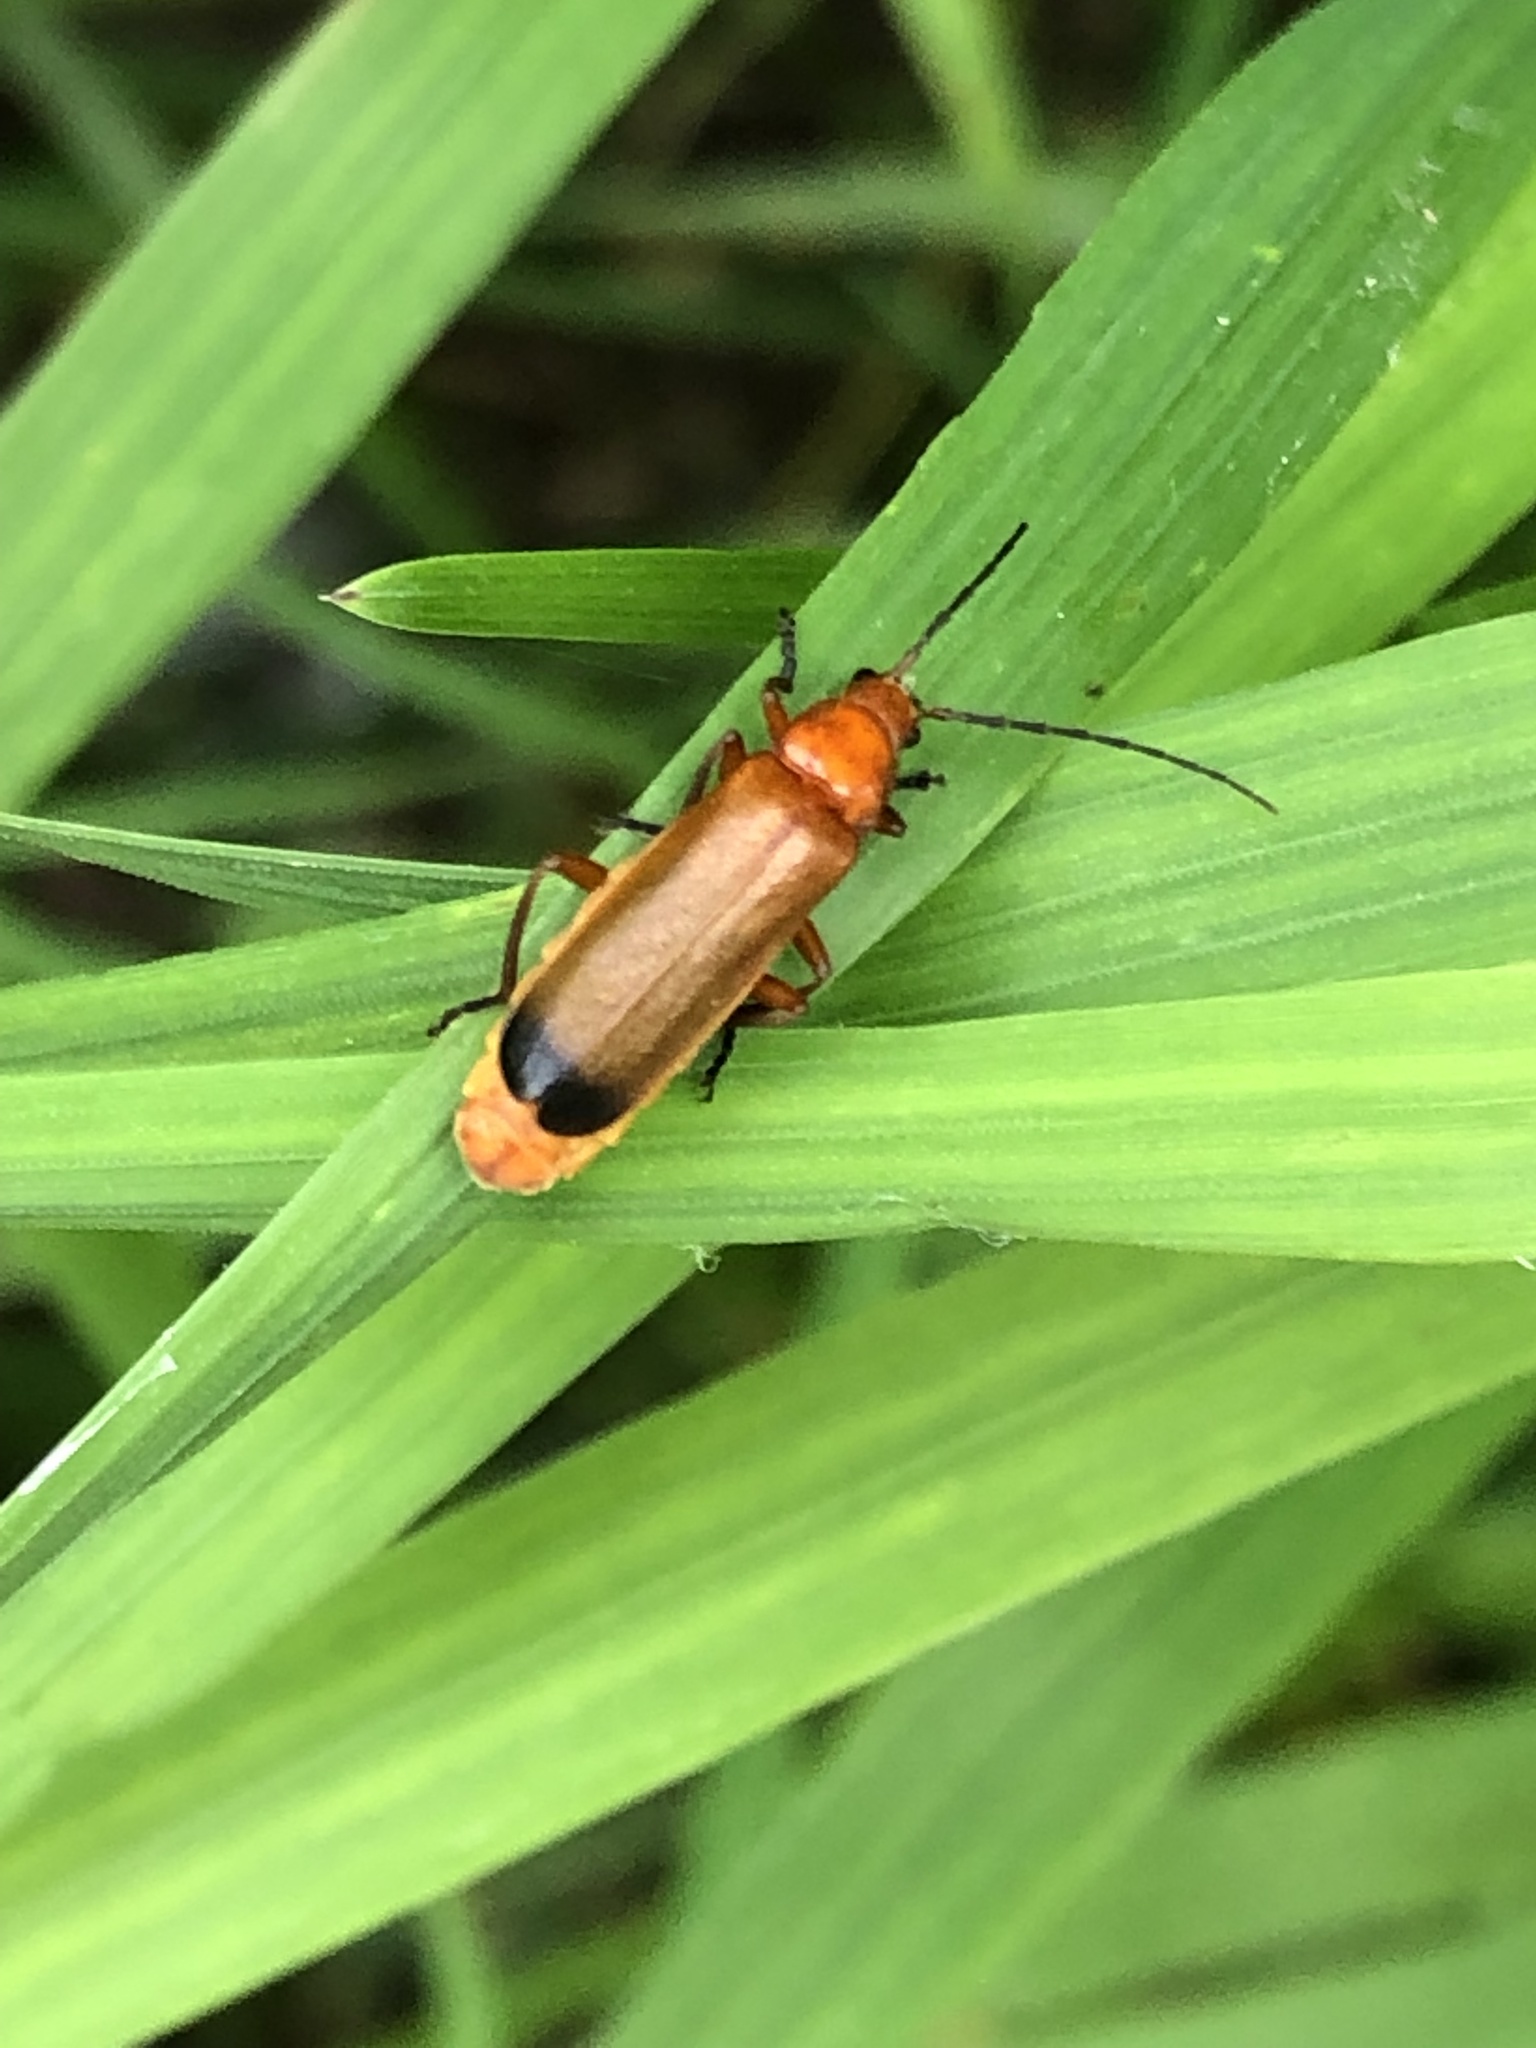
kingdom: Animalia
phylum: Arthropoda
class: Insecta
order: Coleoptera
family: Cantharidae
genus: Rhagonycha
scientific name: Rhagonycha fulva
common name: Common red soldier beetle
